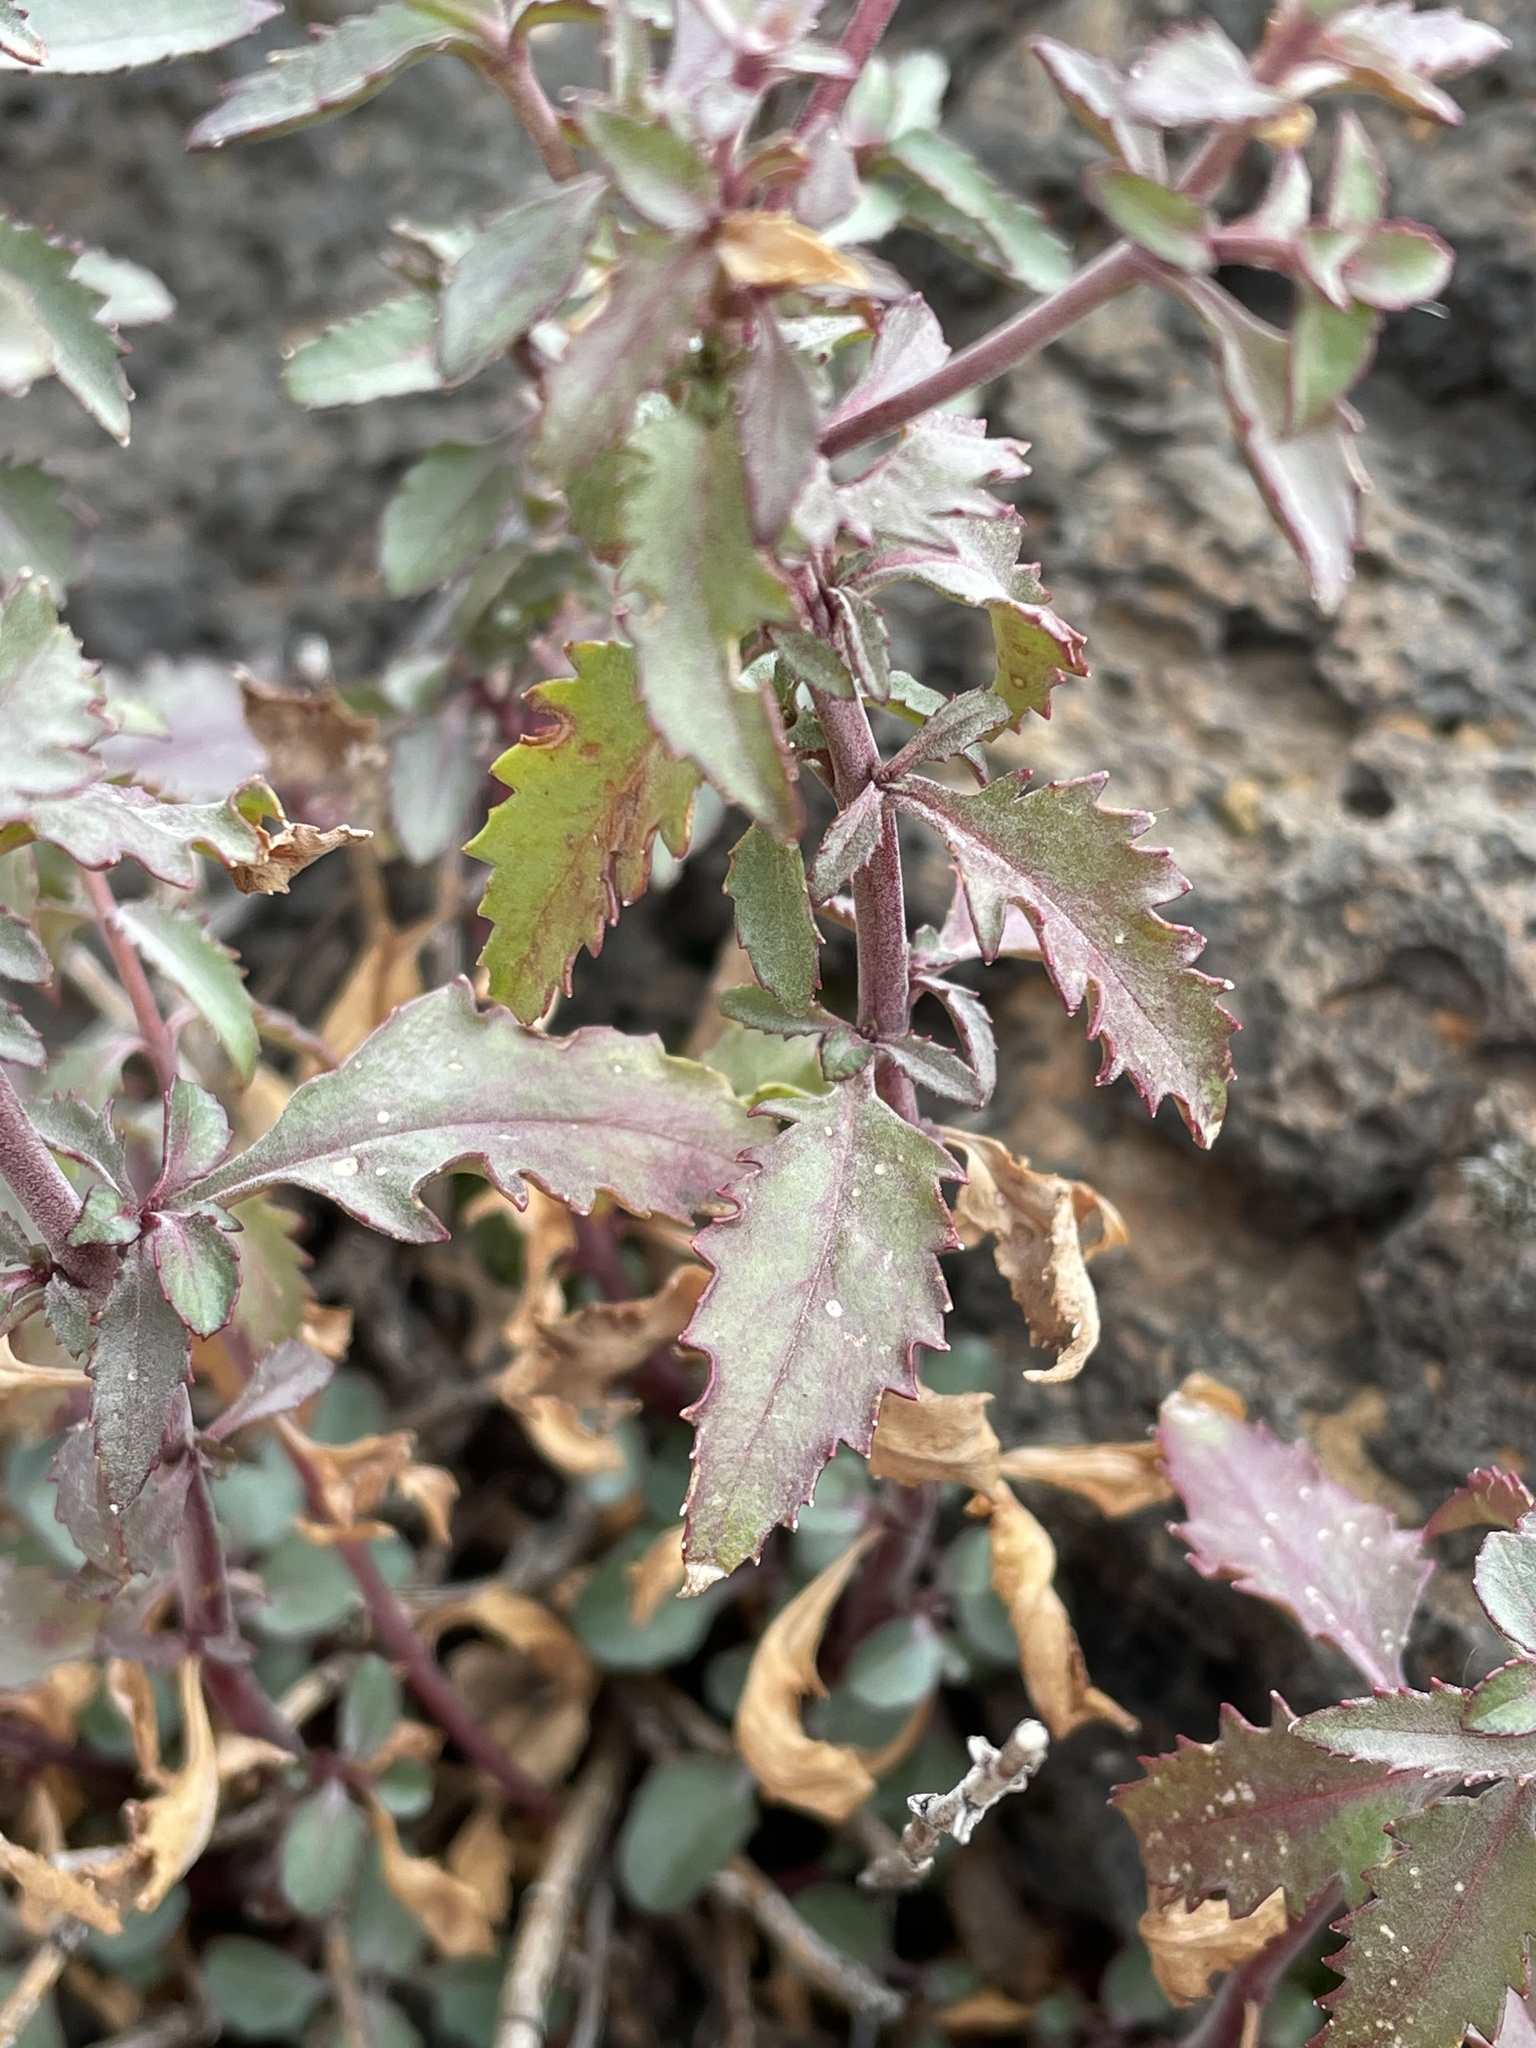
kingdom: Plantae
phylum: Tracheophyta
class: Magnoliopsida
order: Lamiales
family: Plantaginaceae
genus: Penstemon
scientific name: Penstemon richardsonii
